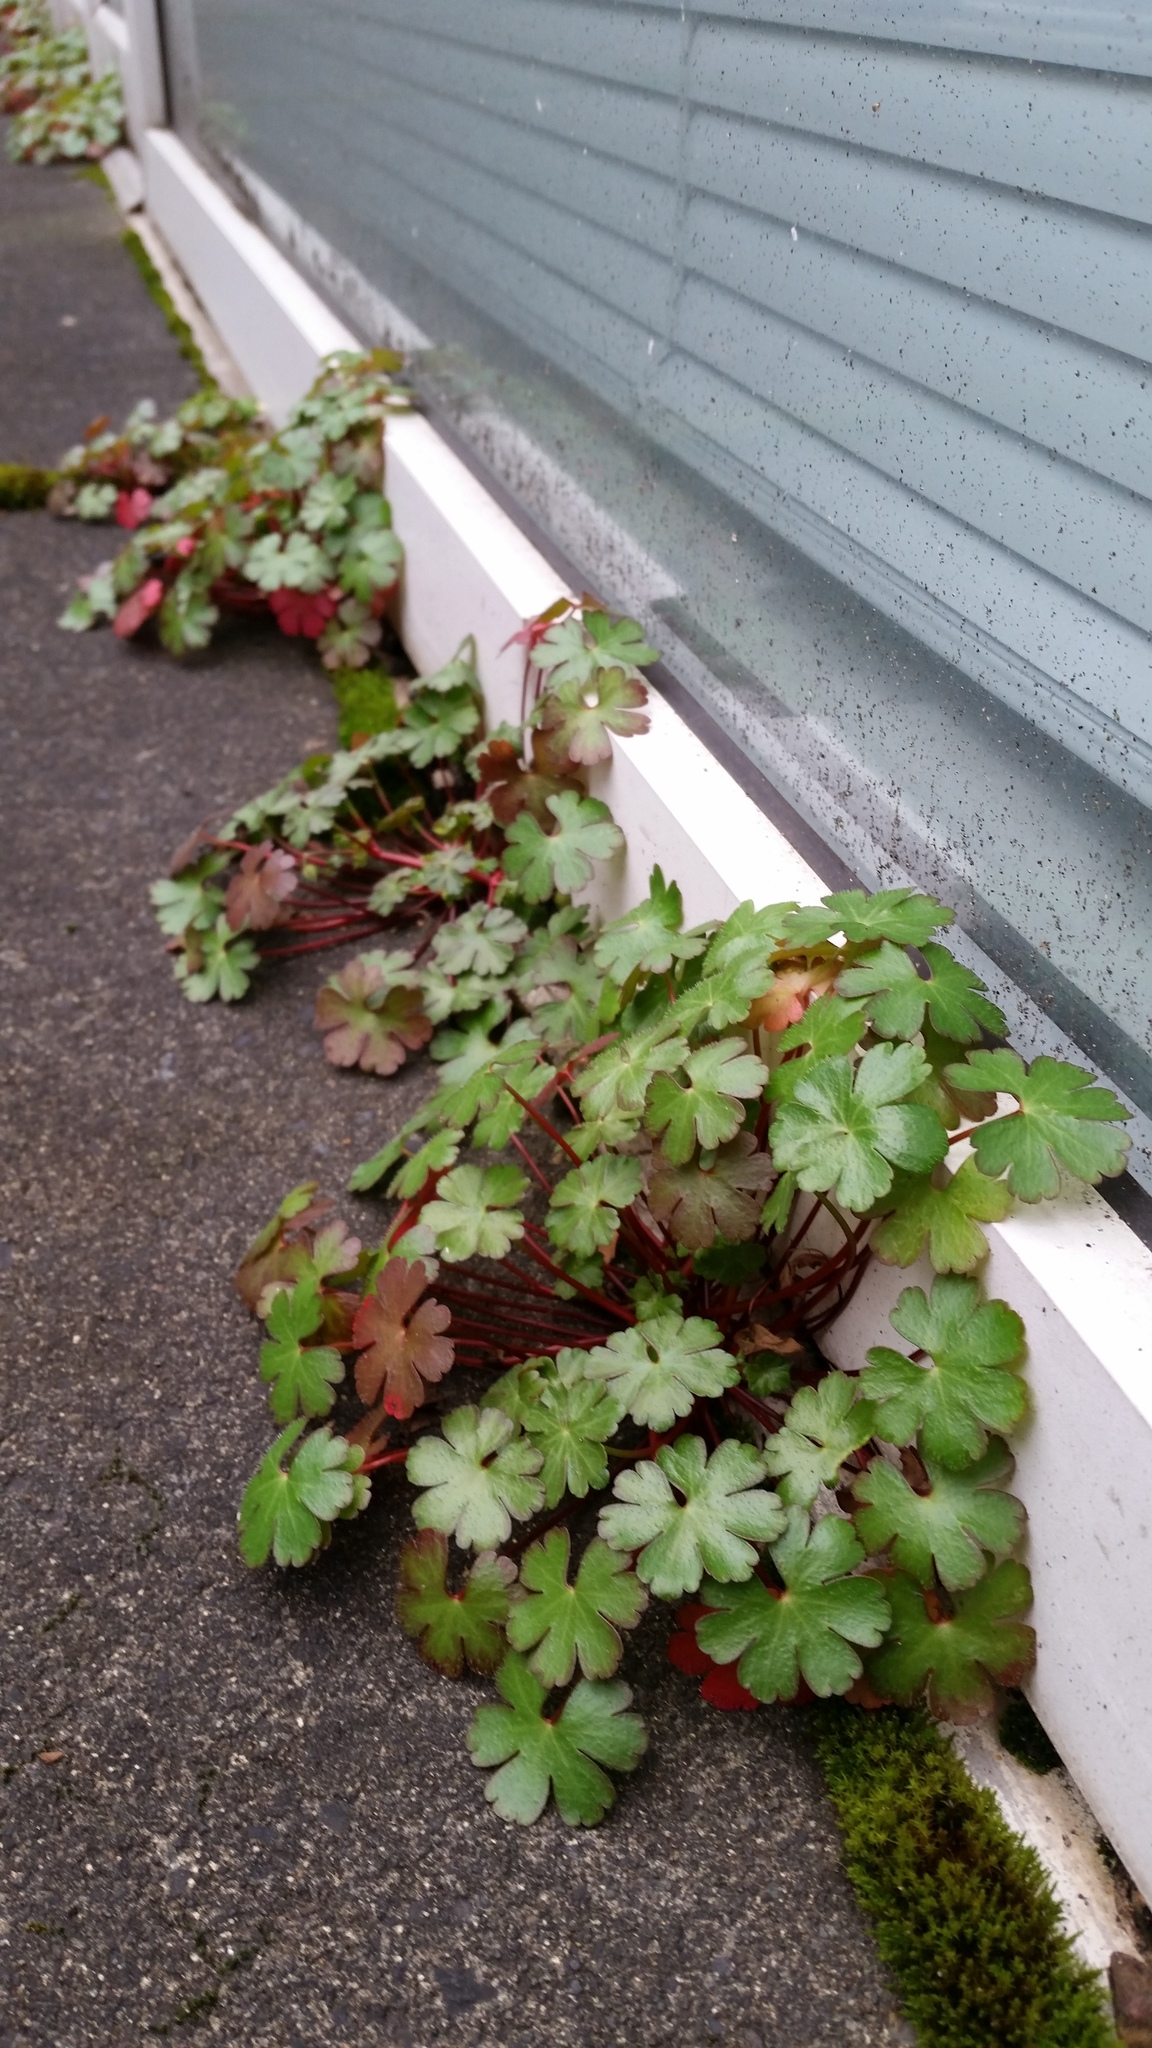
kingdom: Plantae
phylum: Tracheophyta
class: Magnoliopsida
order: Geraniales
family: Geraniaceae
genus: Geranium
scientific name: Geranium lucidum
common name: Shining crane's-bill
